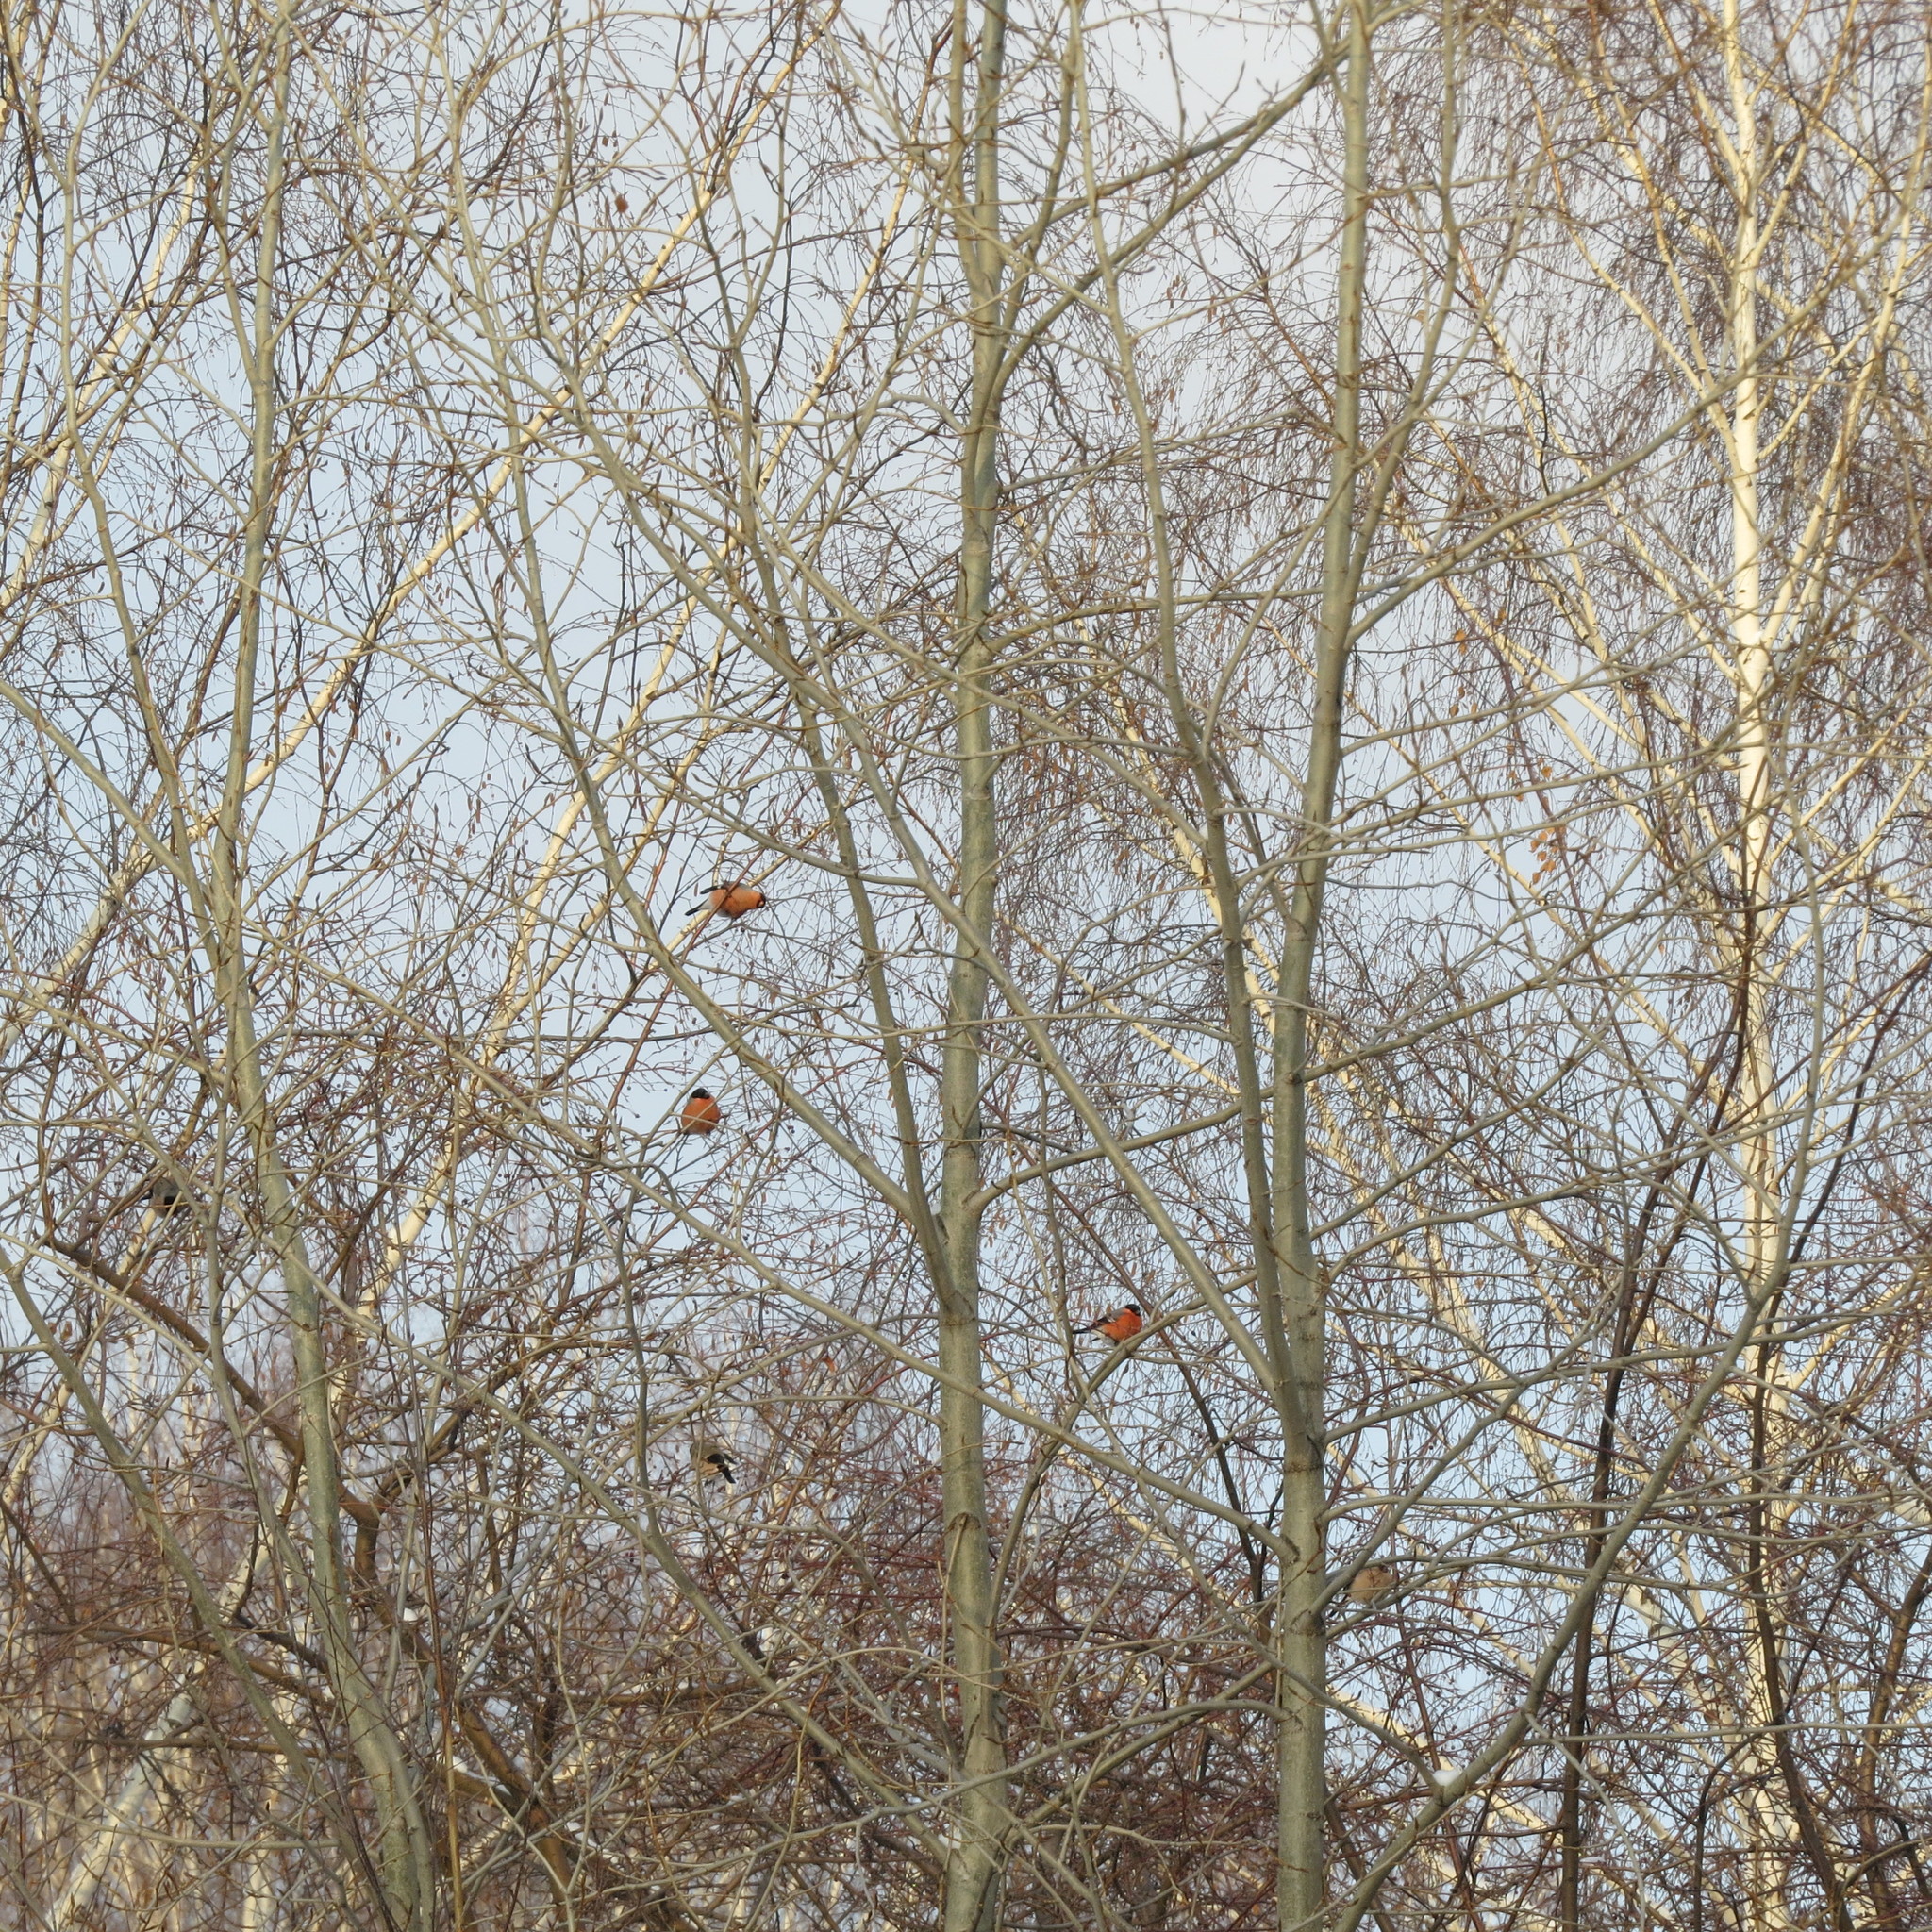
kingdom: Animalia
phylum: Chordata
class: Aves
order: Passeriformes
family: Fringillidae
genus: Pyrrhula
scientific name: Pyrrhula pyrrhula
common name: Eurasian bullfinch
